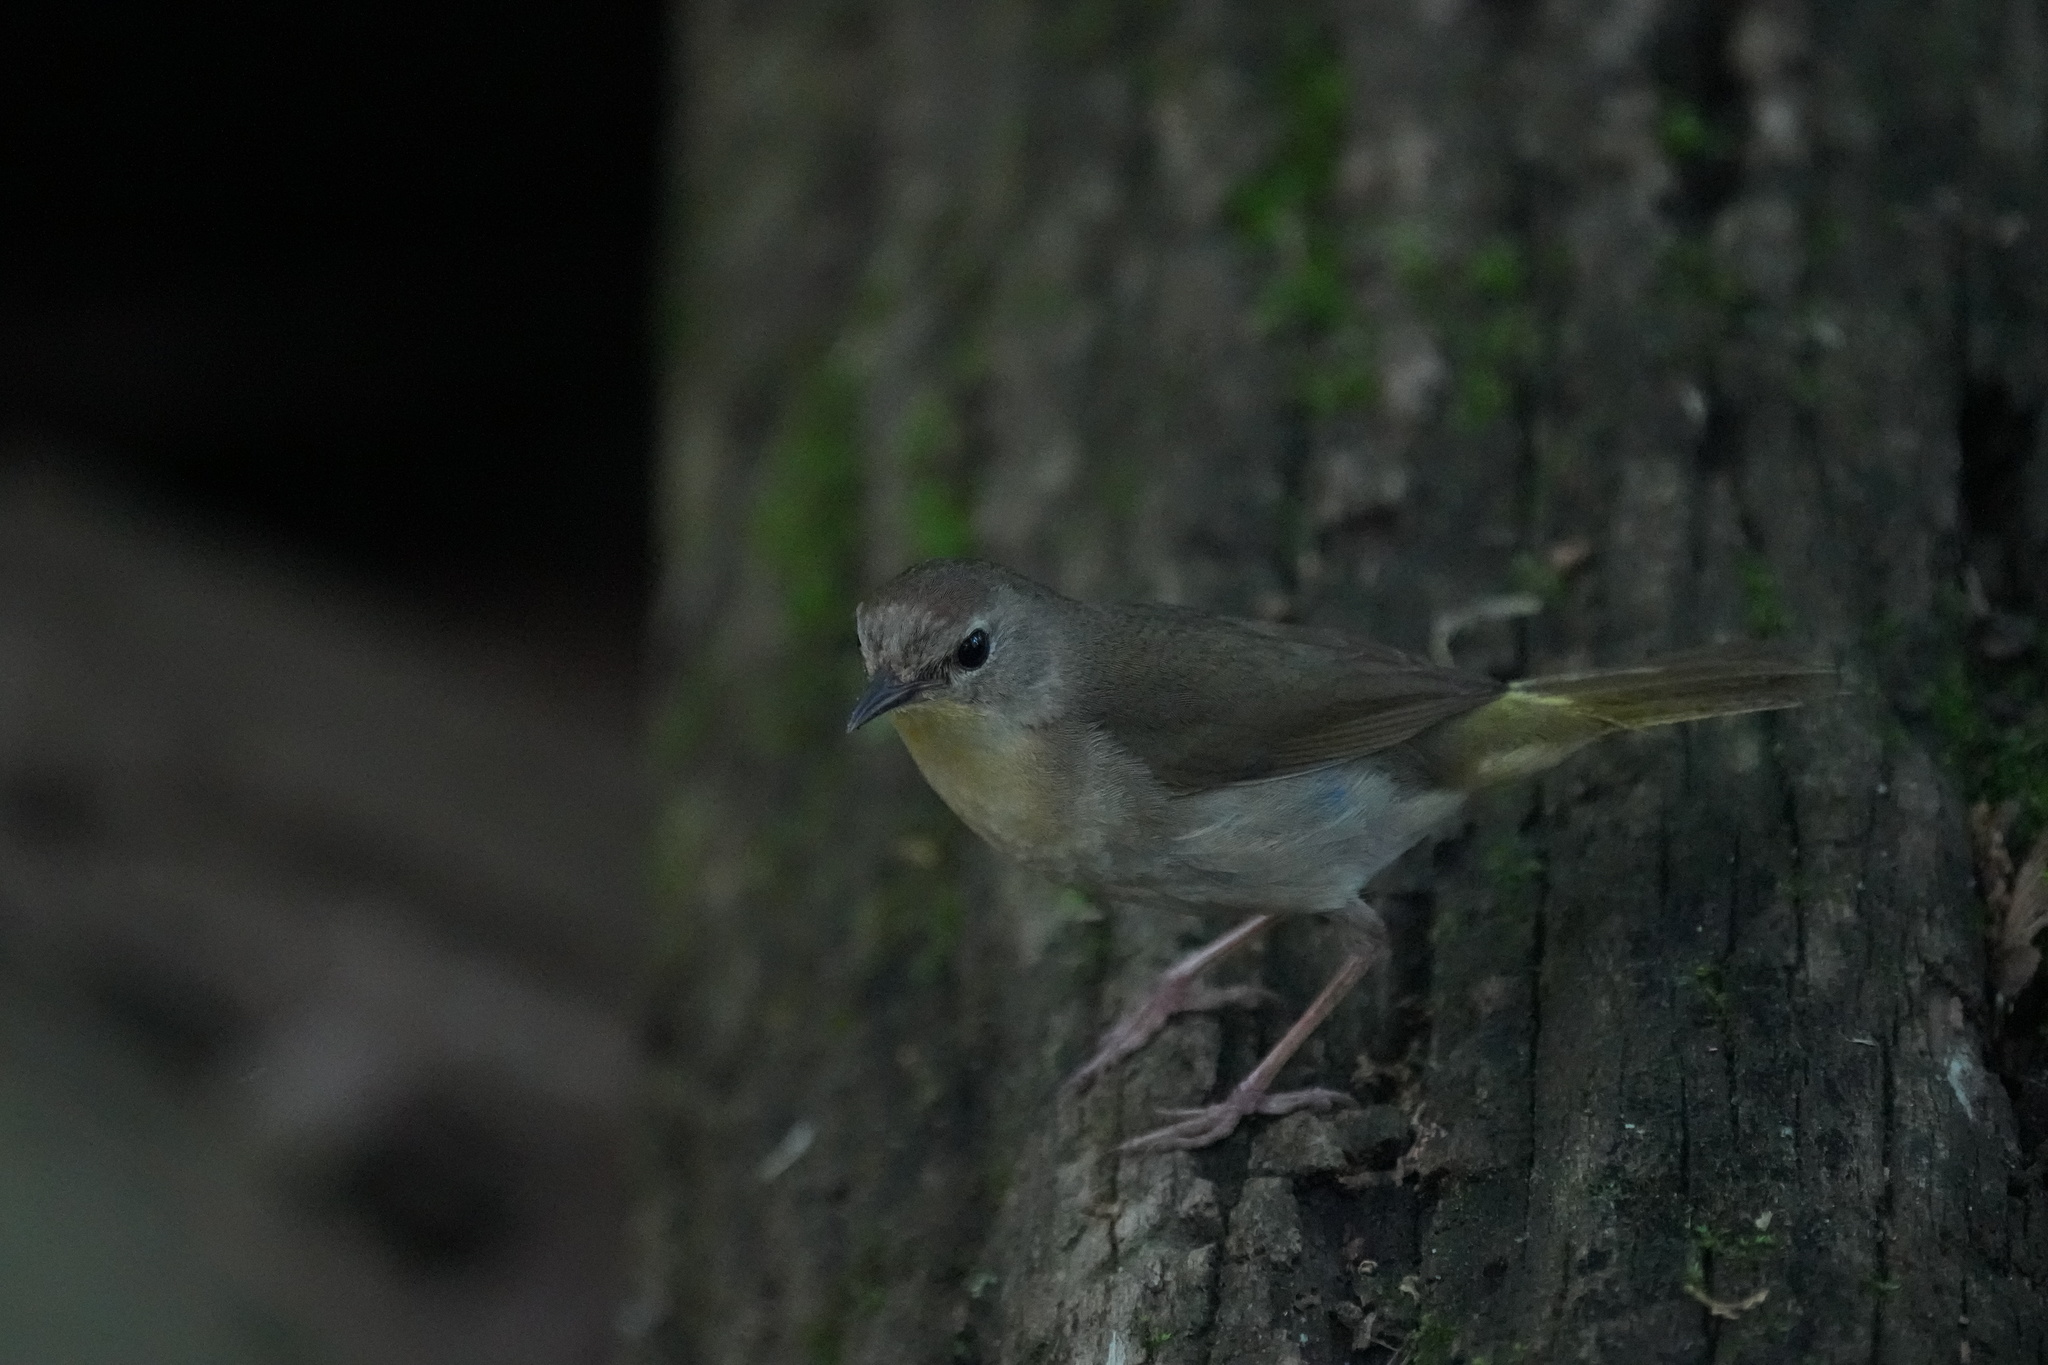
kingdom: Animalia
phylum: Chordata
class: Aves
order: Passeriformes
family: Parulidae
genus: Geothlypis
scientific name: Geothlypis trichas
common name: Common yellowthroat
